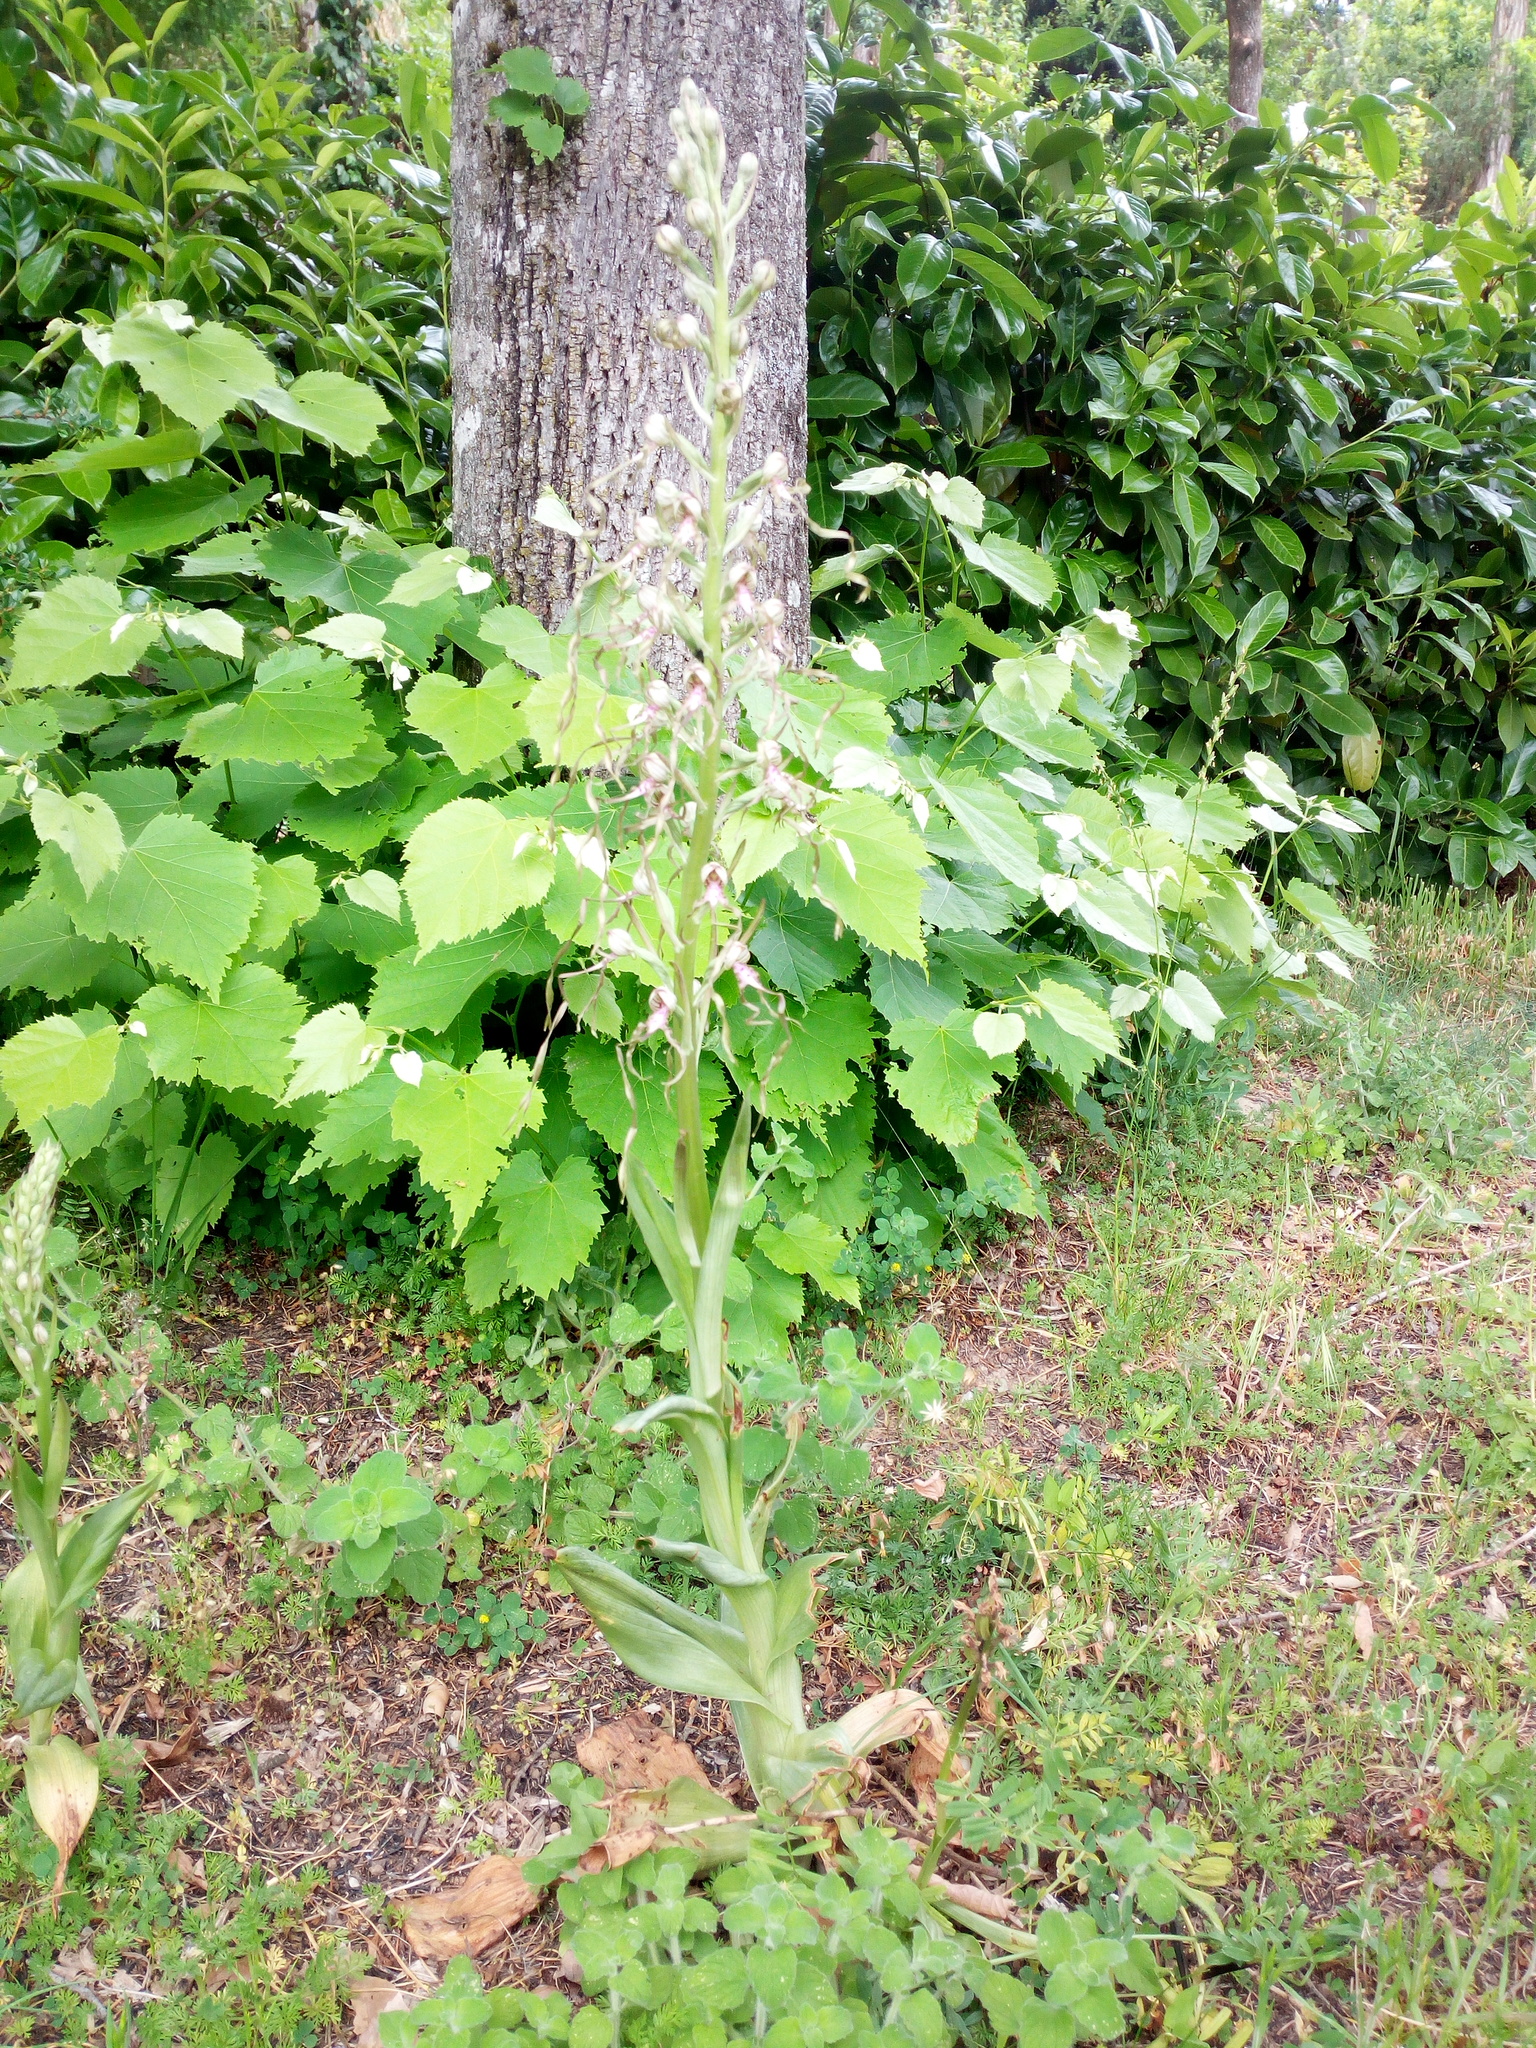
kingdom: Plantae
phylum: Tracheophyta
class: Liliopsida
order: Asparagales
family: Orchidaceae
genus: Himantoglossum
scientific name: Himantoglossum adriaticum
